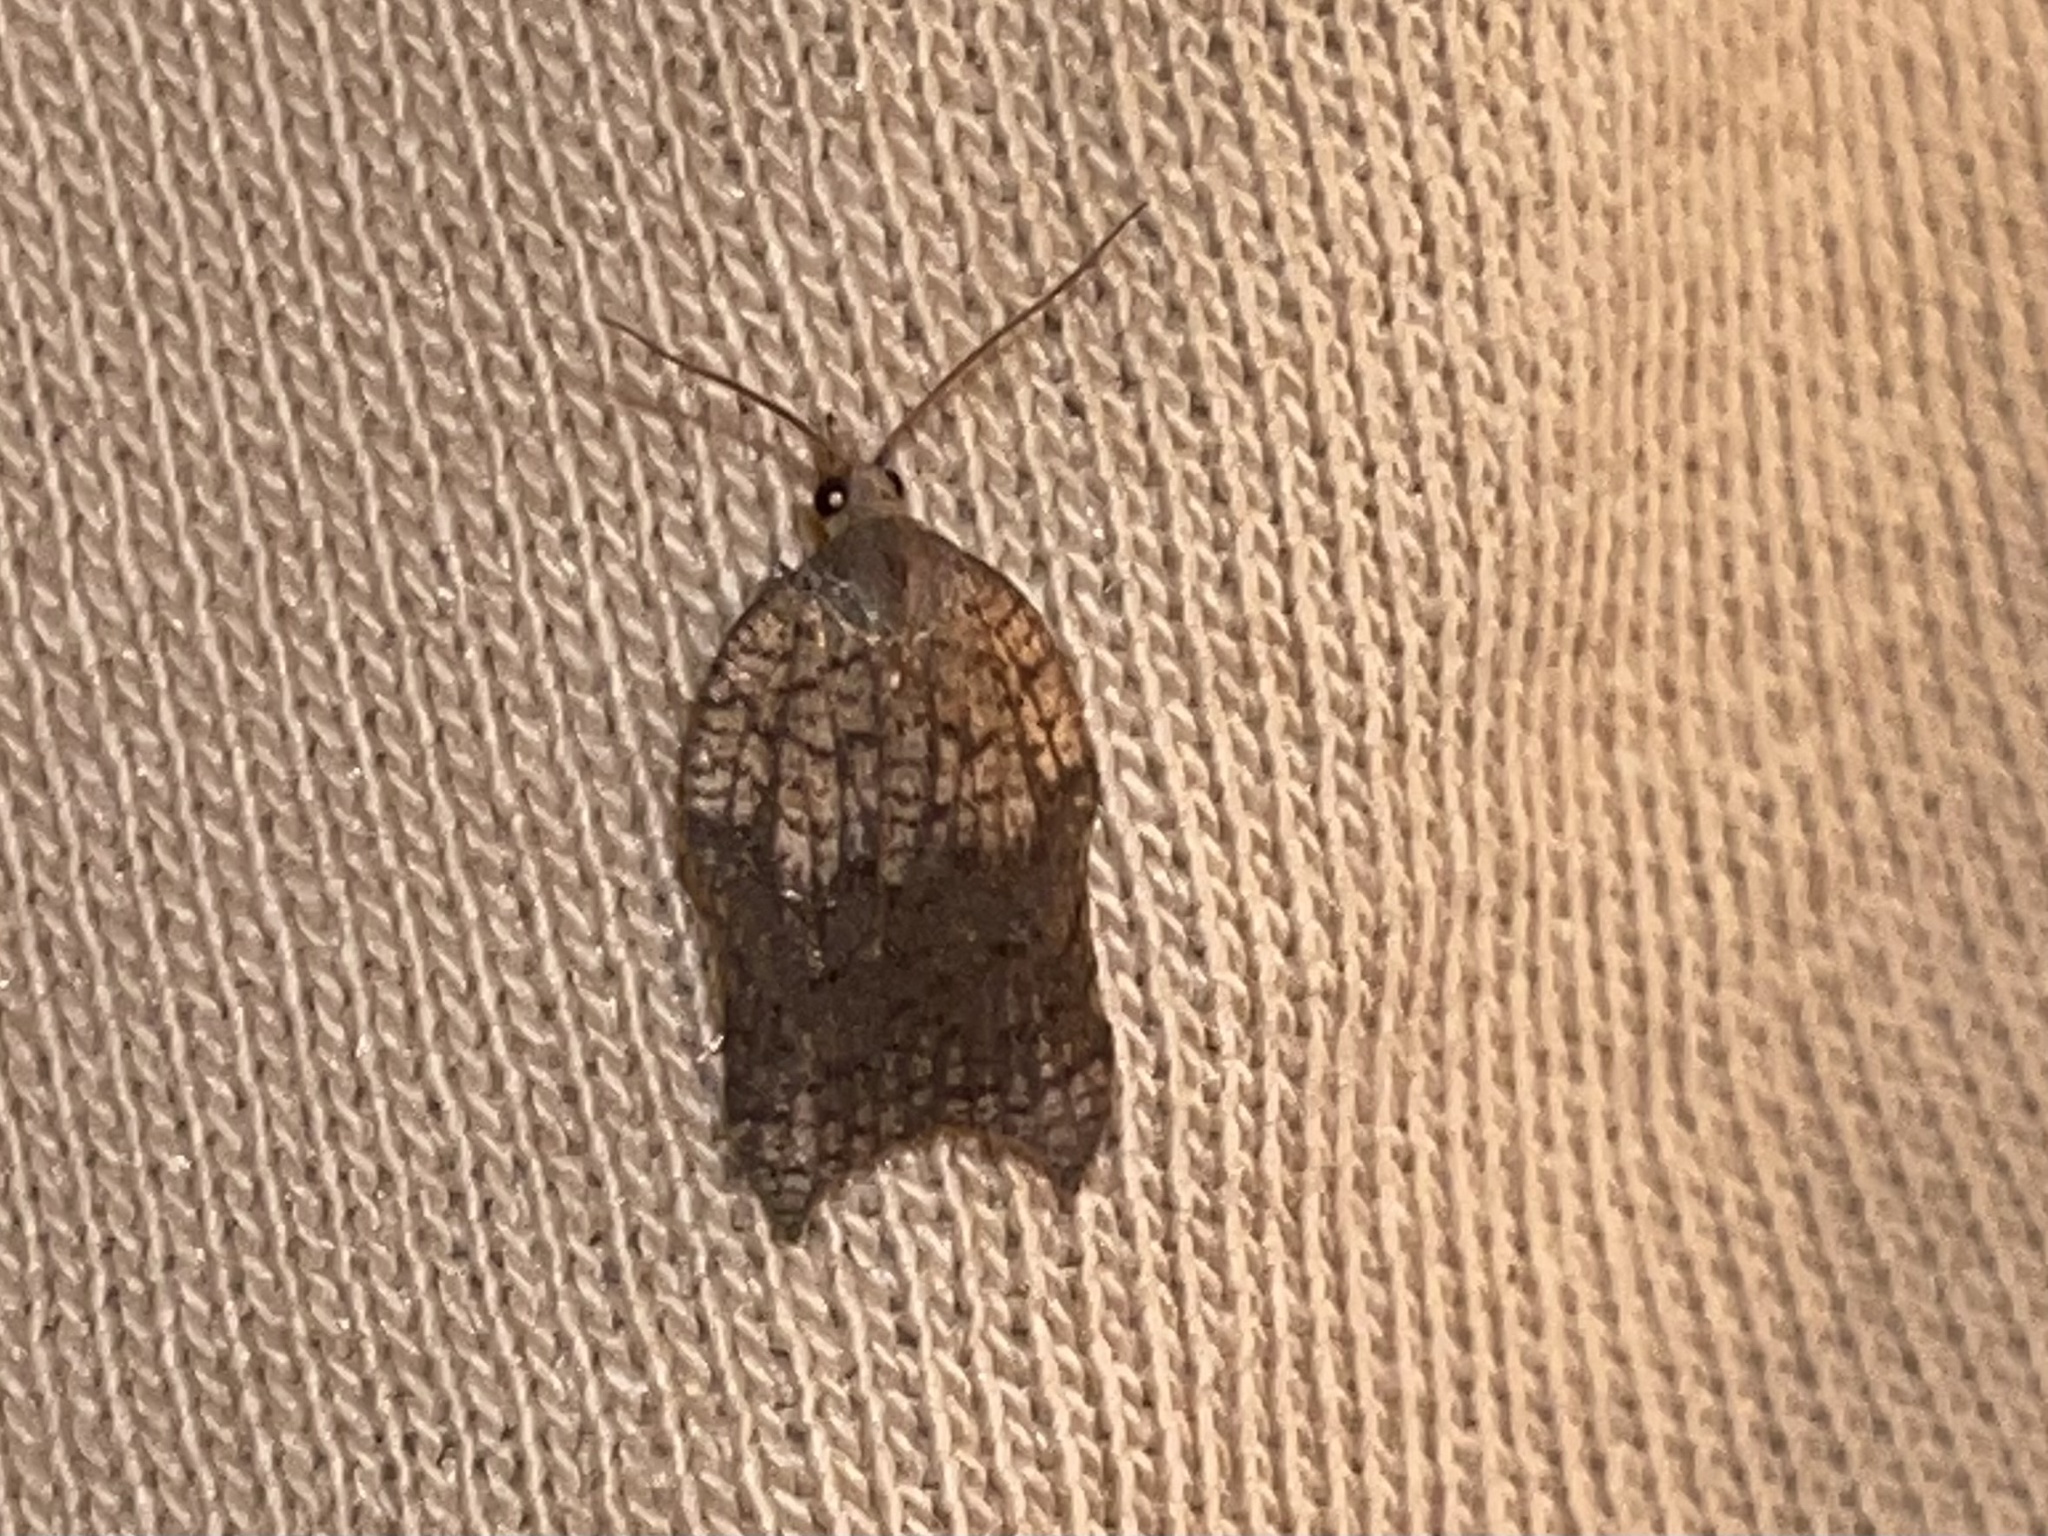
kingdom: Animalia
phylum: Arthropoda
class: Insecta
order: Lepidoptera
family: Tortricidae
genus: Acleris
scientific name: Acleris emargana
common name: Notch-wing button
